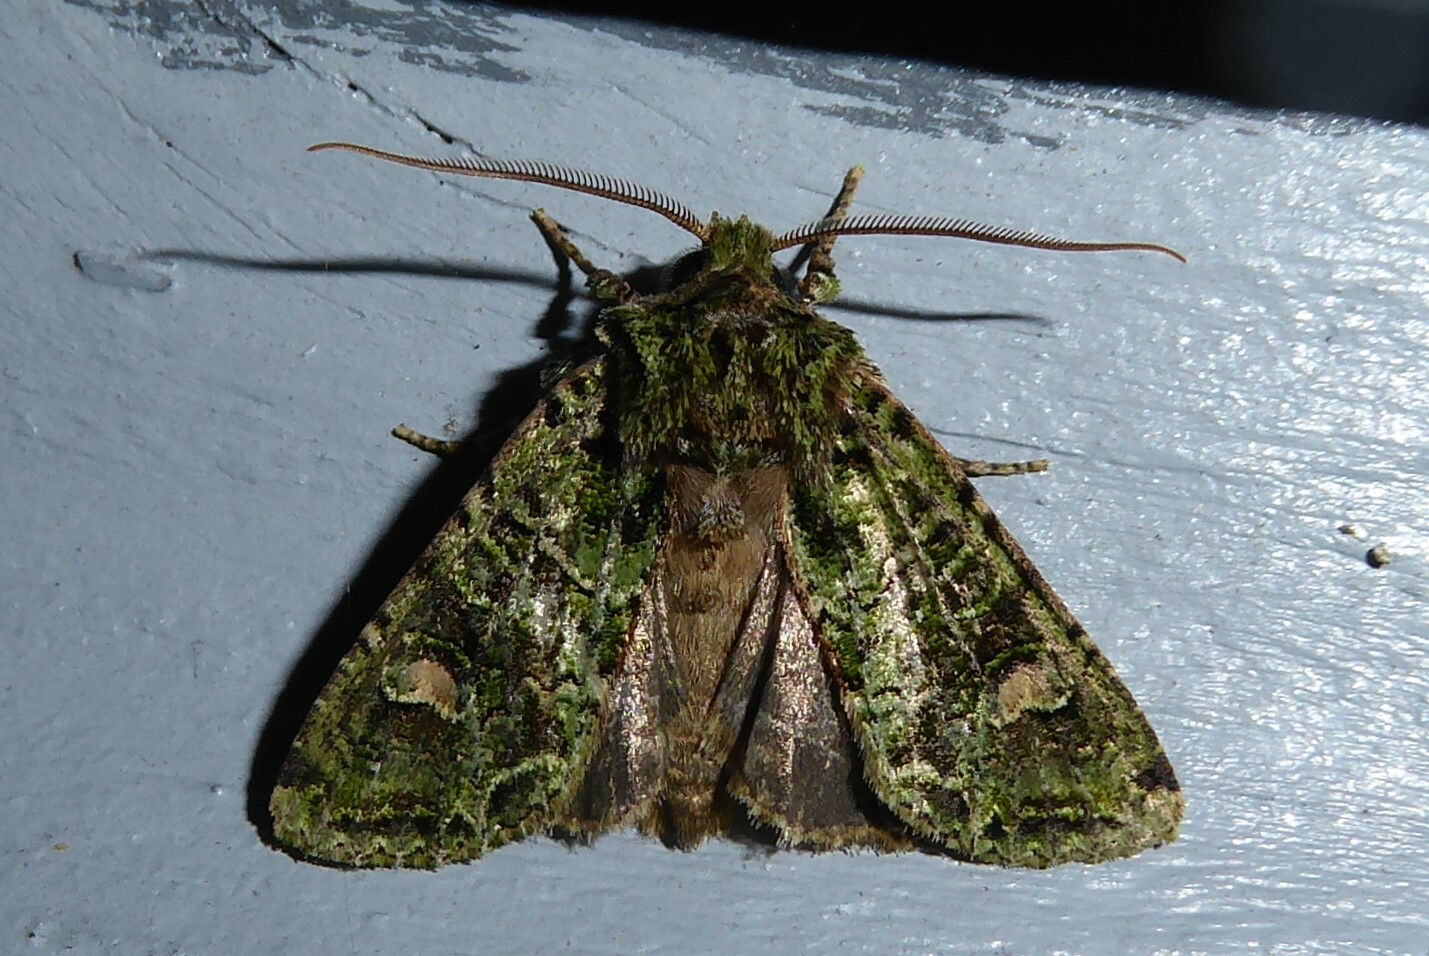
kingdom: Animalia
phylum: Arthropoda
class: Insecta
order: Lepidoptera
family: Noctuidae
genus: Ichneutica
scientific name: Ichneutica
